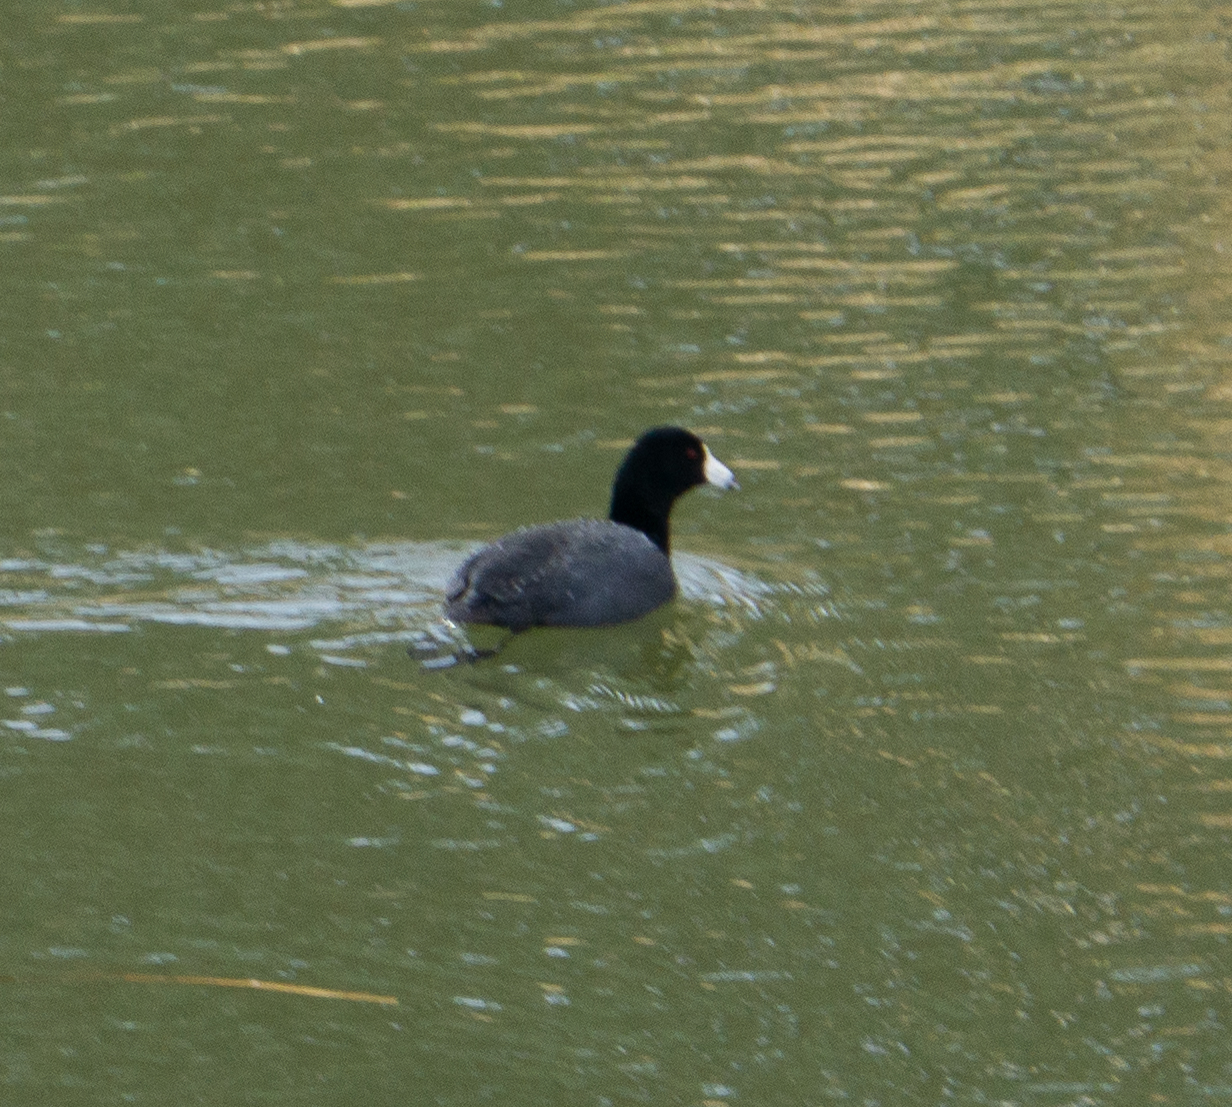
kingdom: Animalia
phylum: Chordata
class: Aves
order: Gruiformes
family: Rallidae
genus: Fulica
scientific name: Fulica americana
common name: American coot
